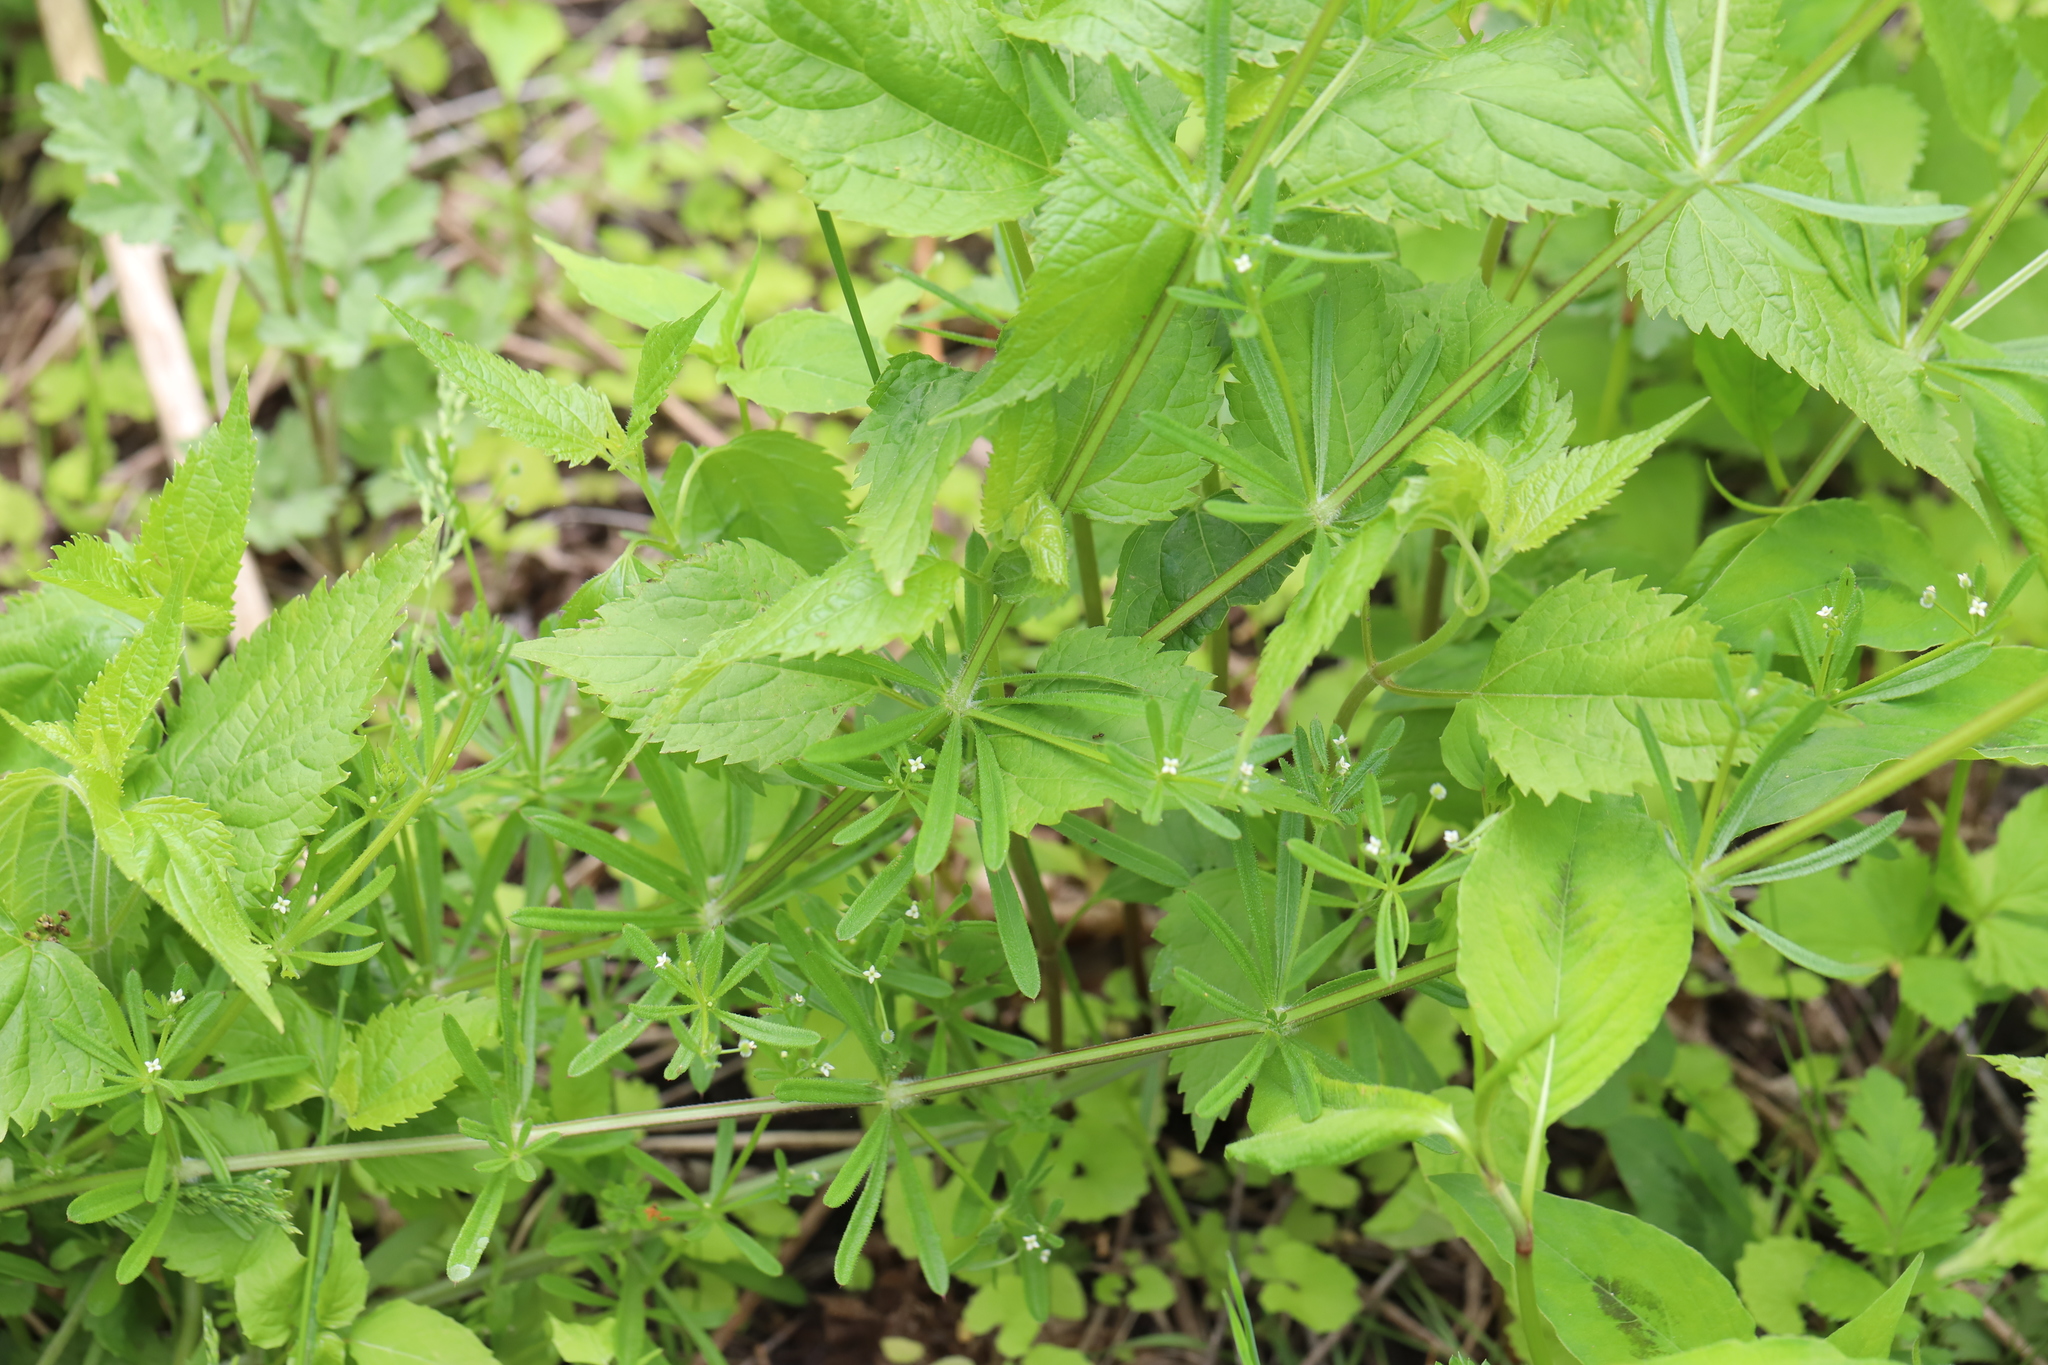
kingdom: Plantae
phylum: Tracheophyta
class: Magnoliopsida
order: Gentianales
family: Rubiaceae
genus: Galium
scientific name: Galium aparine
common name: Cleavers
